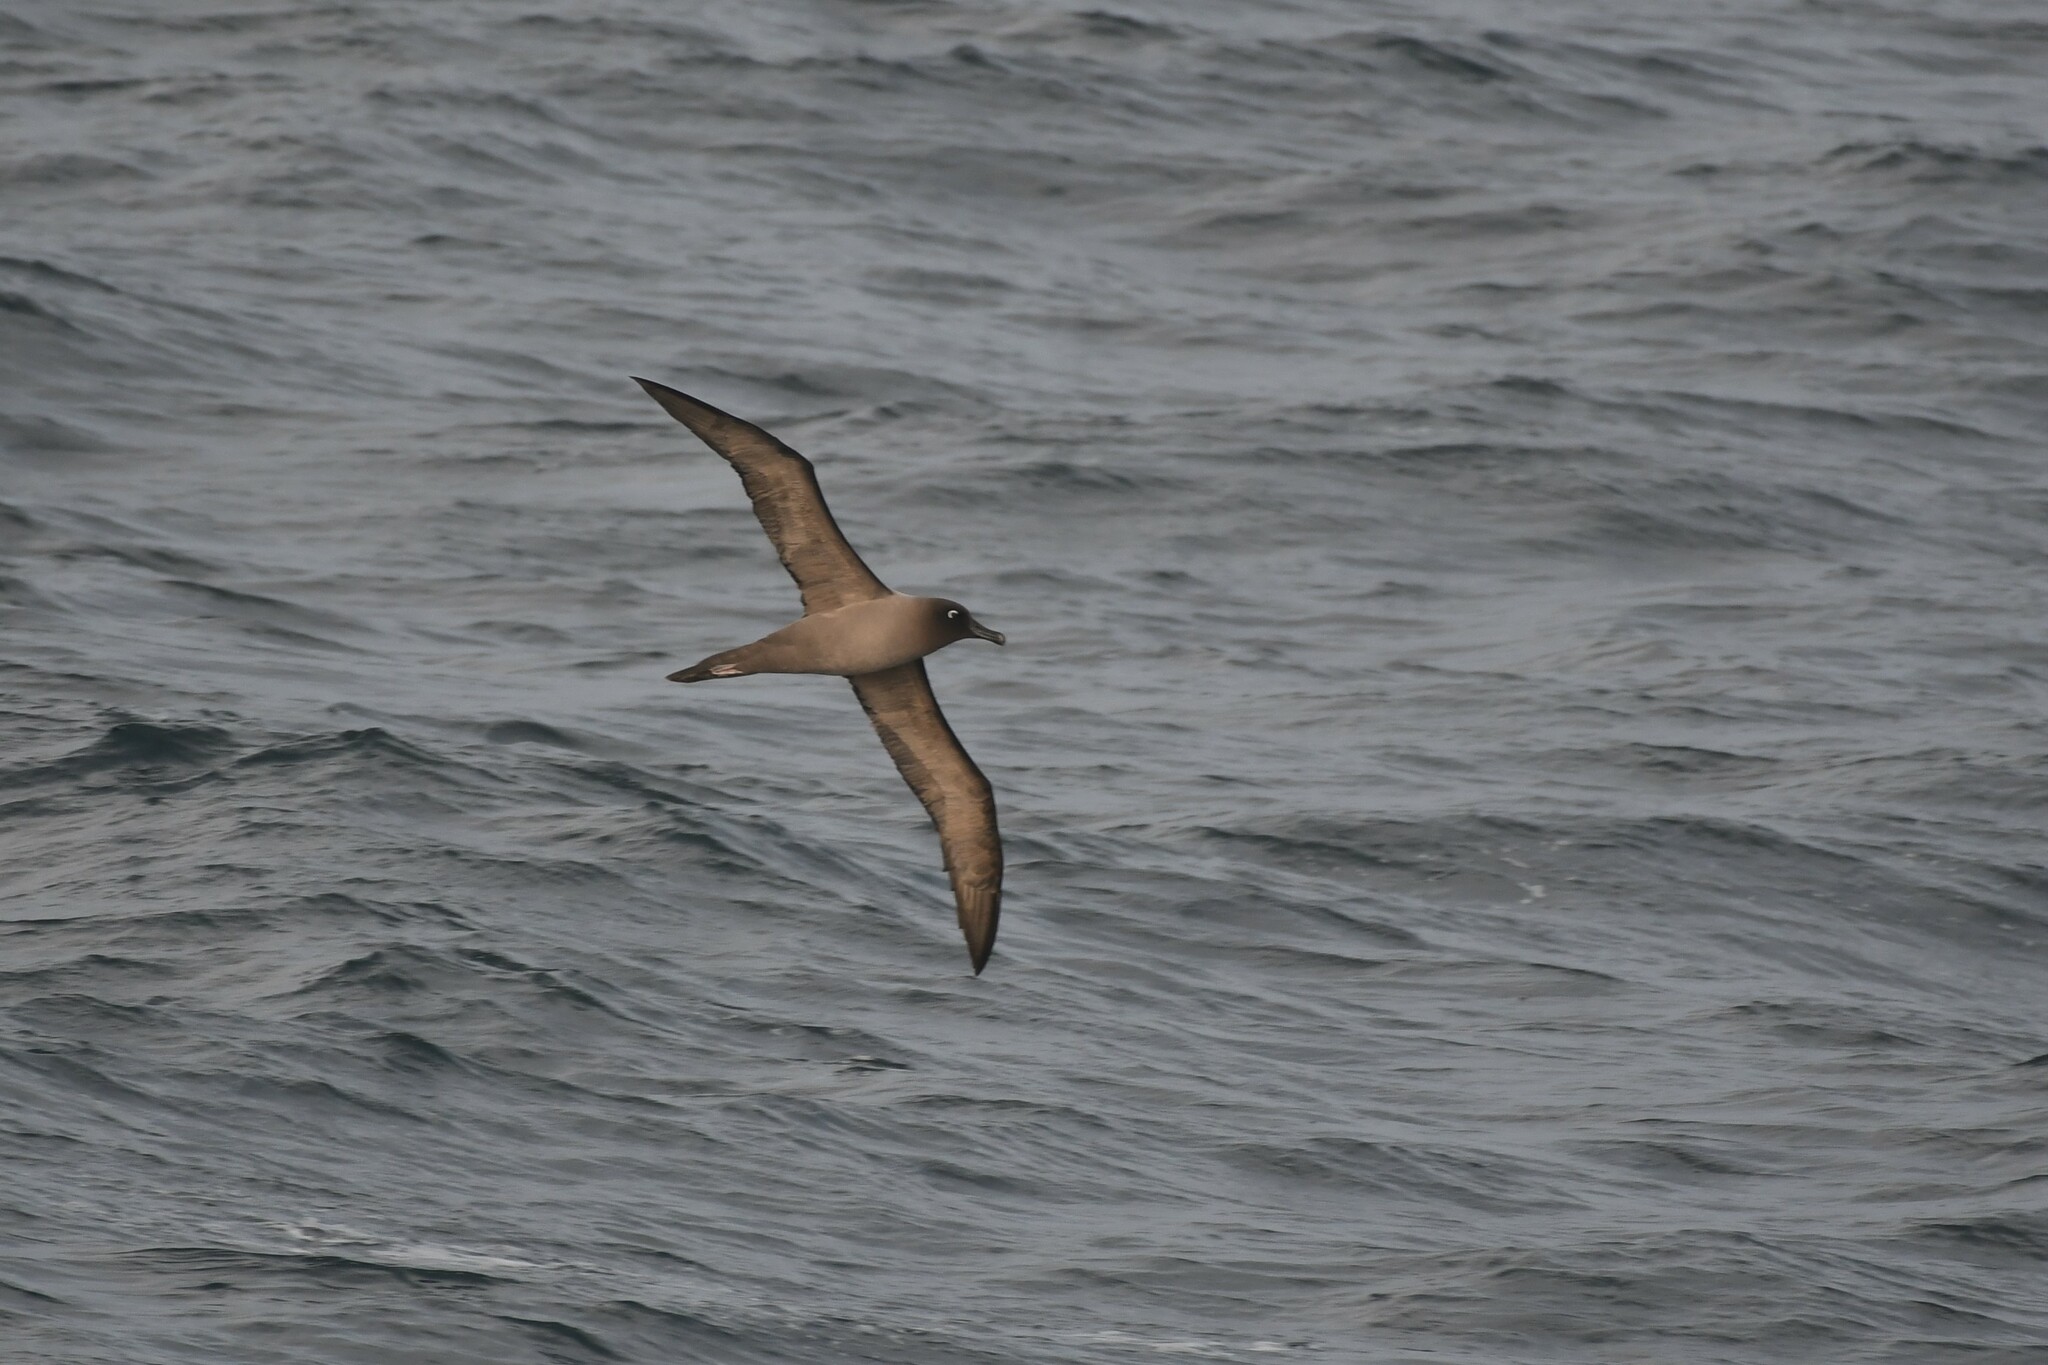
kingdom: Animalia
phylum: Chordata
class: Aves
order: Procellariiformes
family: Diomedeidae
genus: Phoebetria
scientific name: Phoebetria palpebrata
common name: Light-mantled albatross
